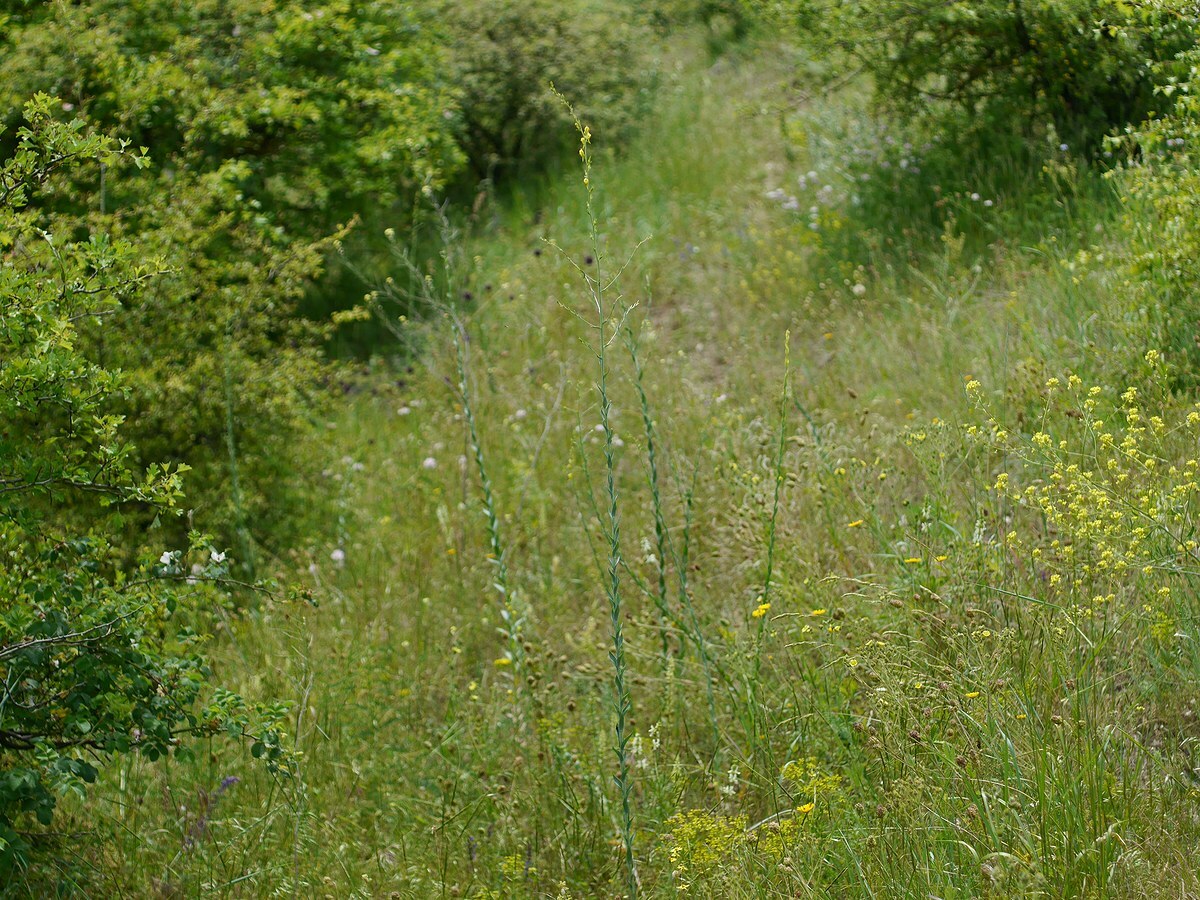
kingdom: Plantae
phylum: Tracheophyta
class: Magnoliopsida
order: Lamiales
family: Plantaginaceae
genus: Linaria
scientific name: Linaria genistifolia
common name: Broomleaf toadflax
